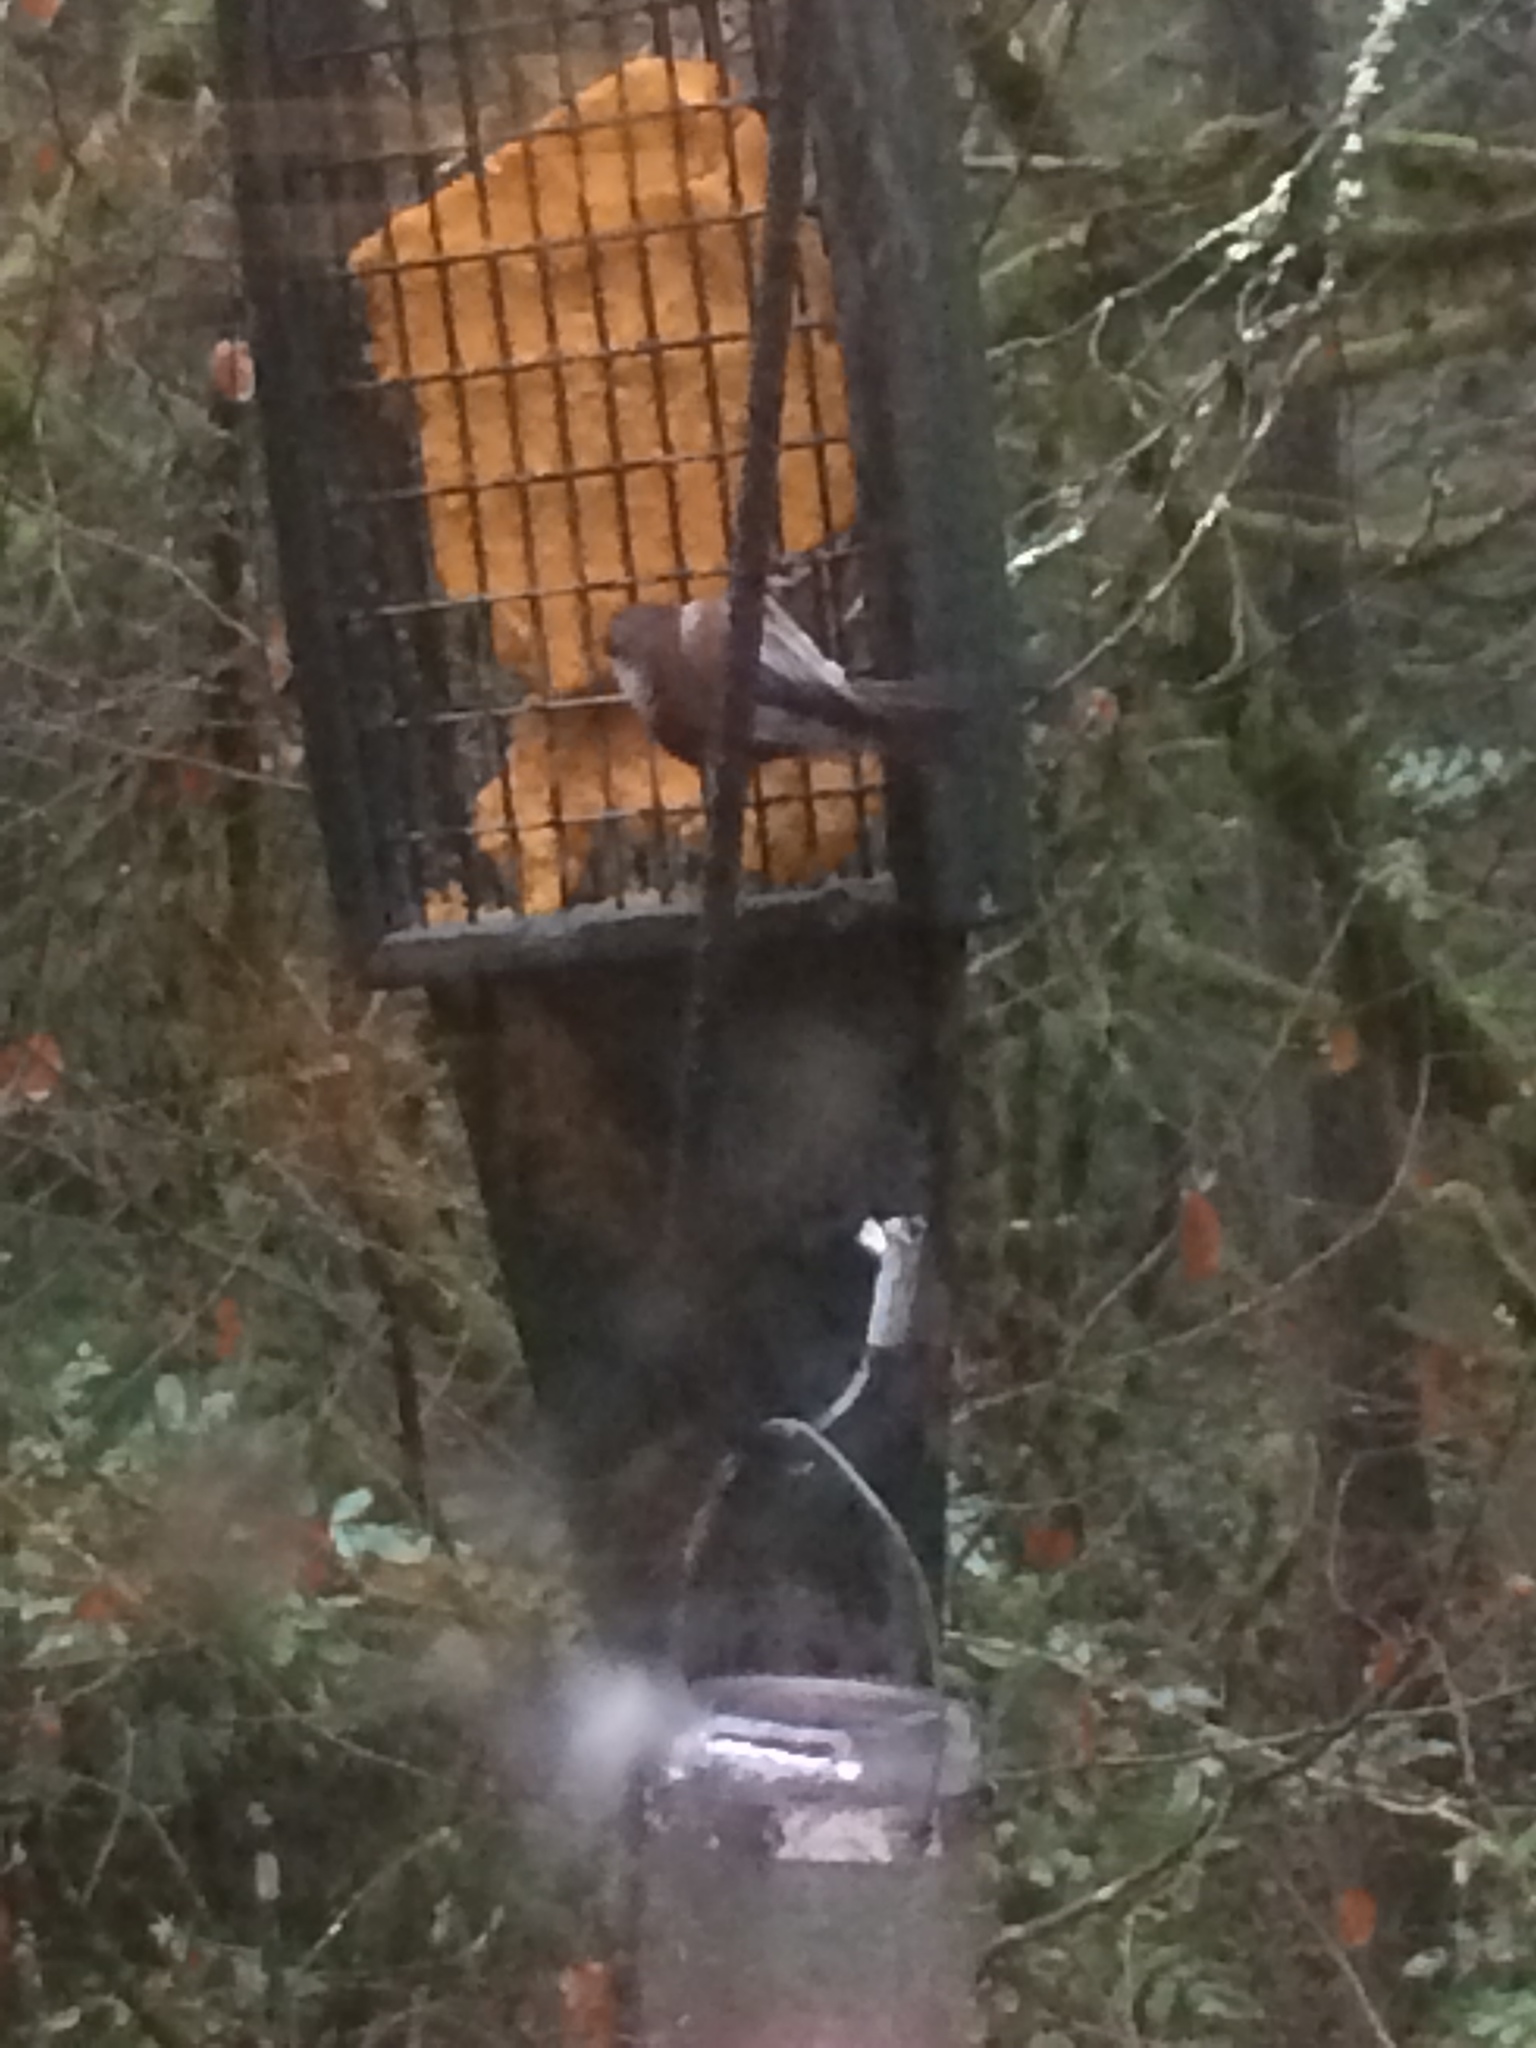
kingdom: Animalia
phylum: Chordata
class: Aves
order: Passeriformes
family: Paridae
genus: Poecile
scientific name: Poecile rufescens
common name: Chestnut-backed chickadee
